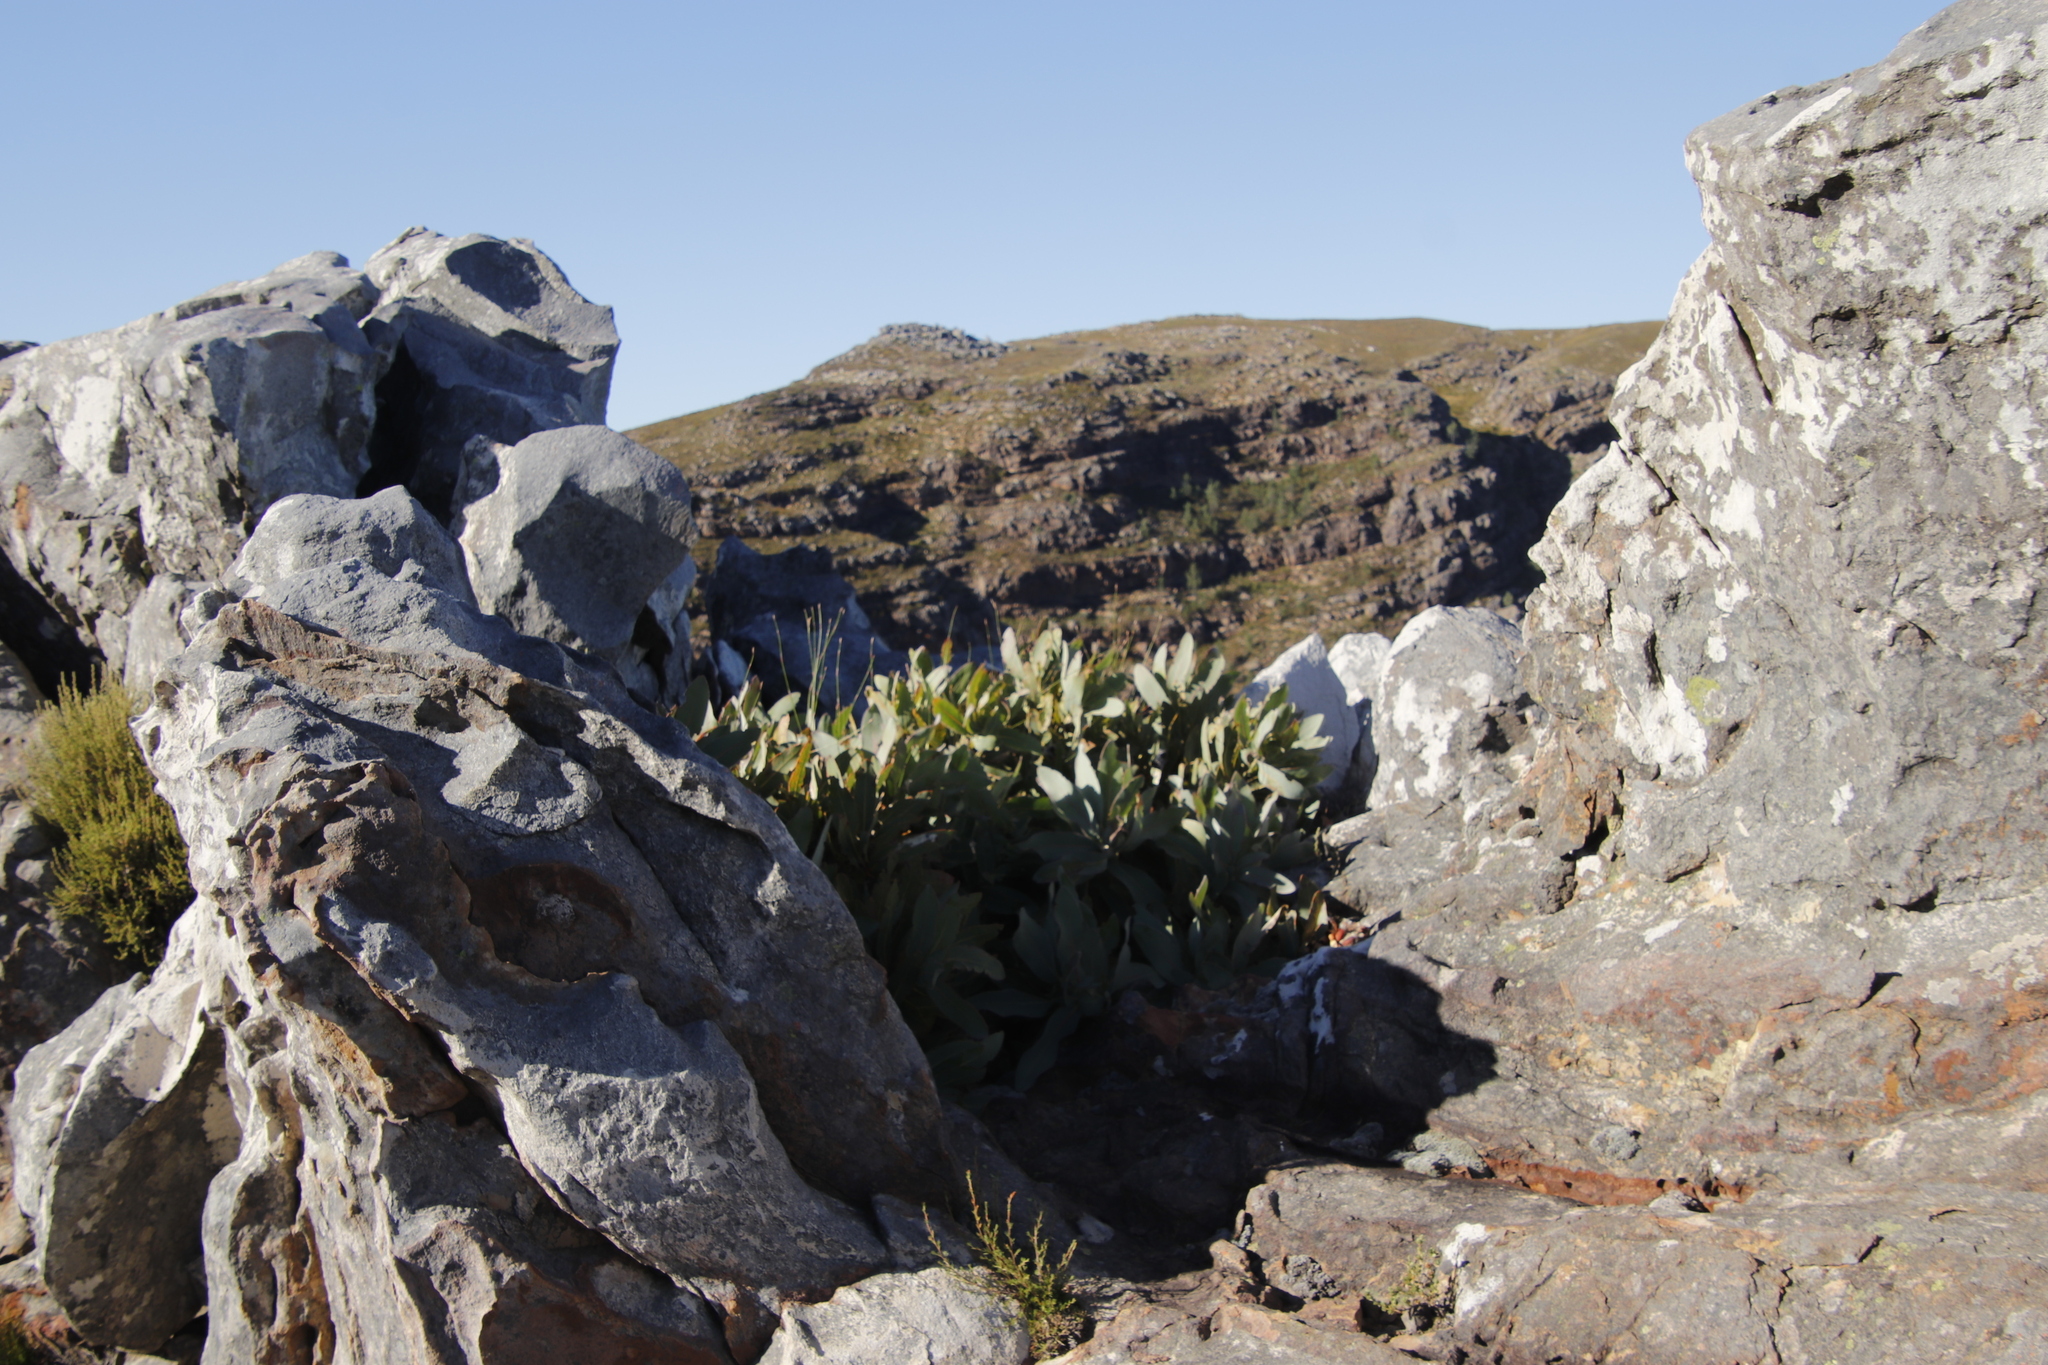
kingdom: Plantae
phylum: Tracheophyta
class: Magnoliopsida
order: Proteales
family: Proteaceae
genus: Protea
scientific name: Protea magnifica
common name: Bearded sugarbush
